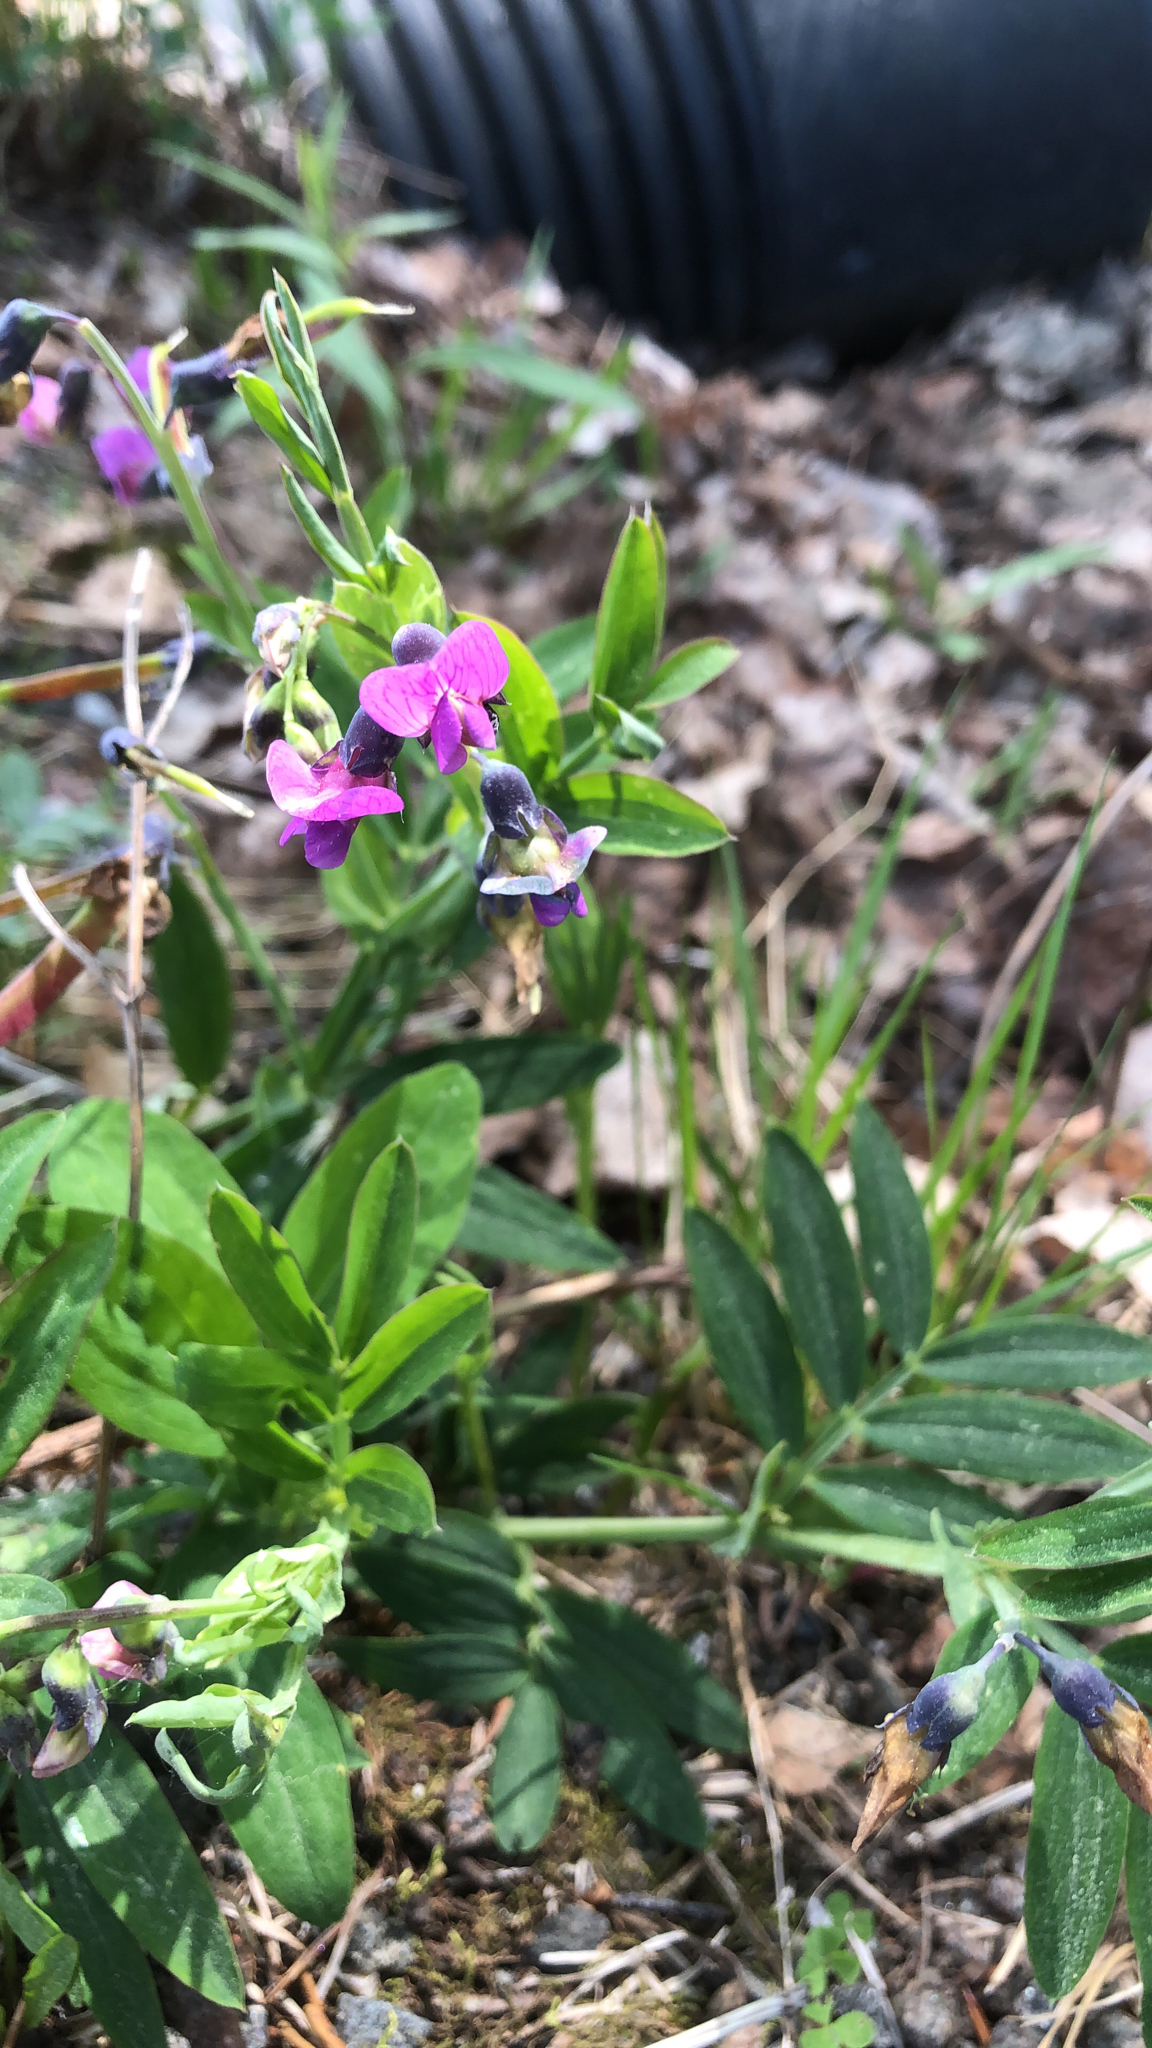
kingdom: Plantae
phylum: Tracheophyta
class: Magnoliopsida
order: Fabales
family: Fabaceae
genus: Lathyrus
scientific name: Lathyrus linifolius
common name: Bitter-vetch
